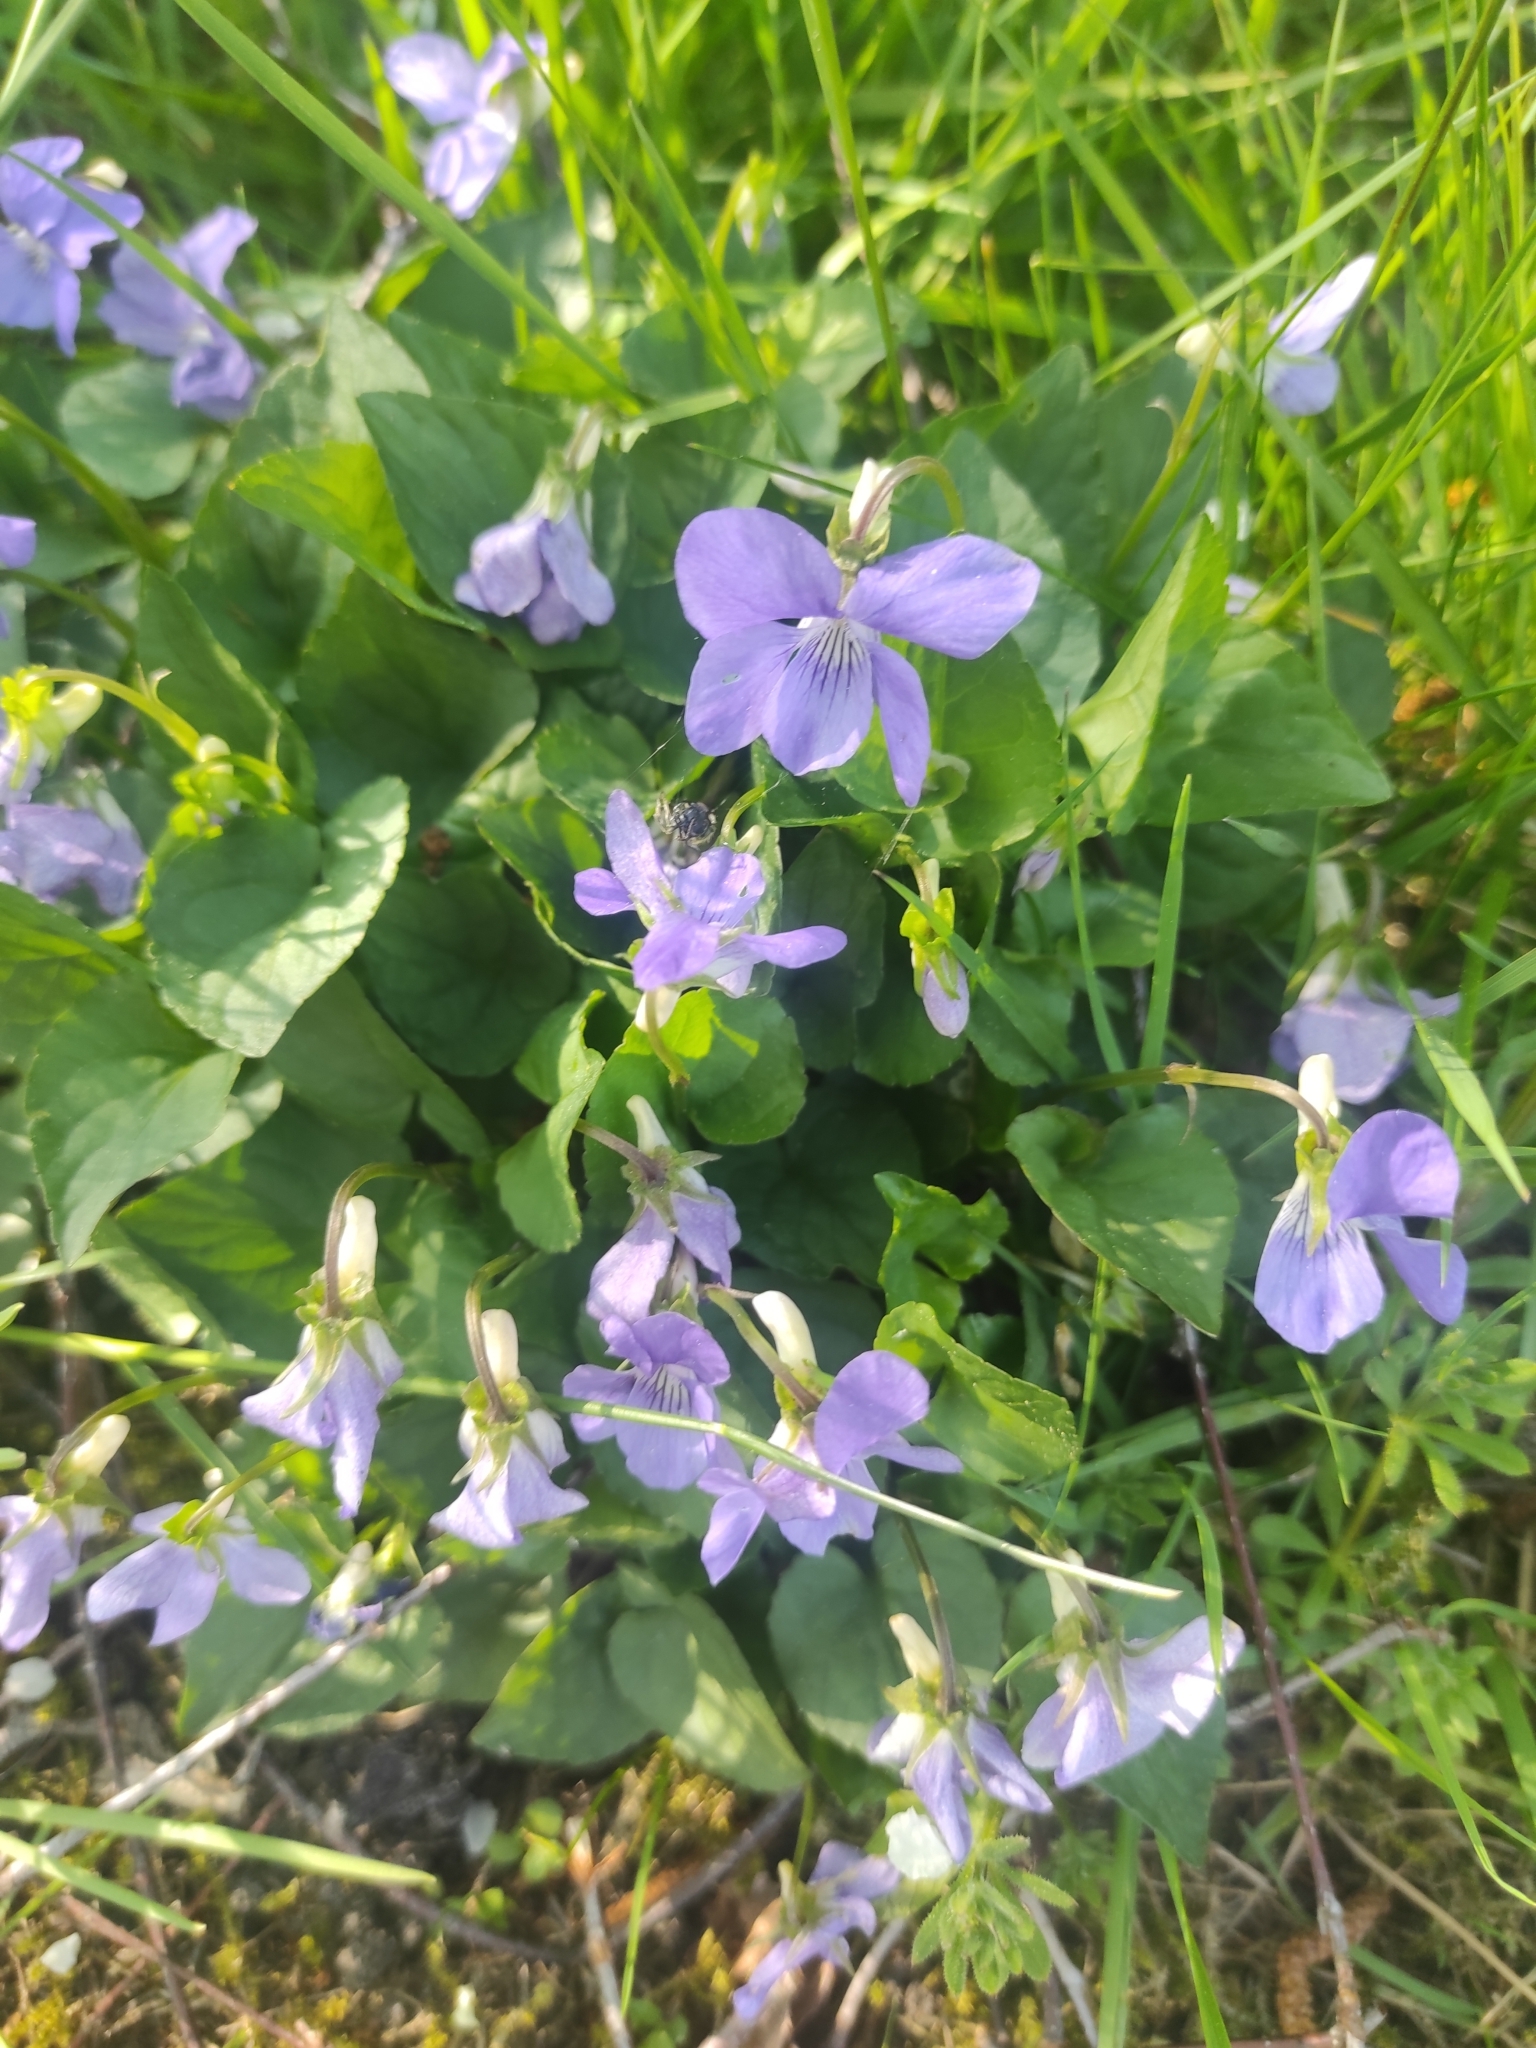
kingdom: Plantae
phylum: Tracheophyta
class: Magnoliopsida
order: Malpighiales
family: Violaceae
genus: Viola
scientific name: Viola riviniana
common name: Common dog-violet
